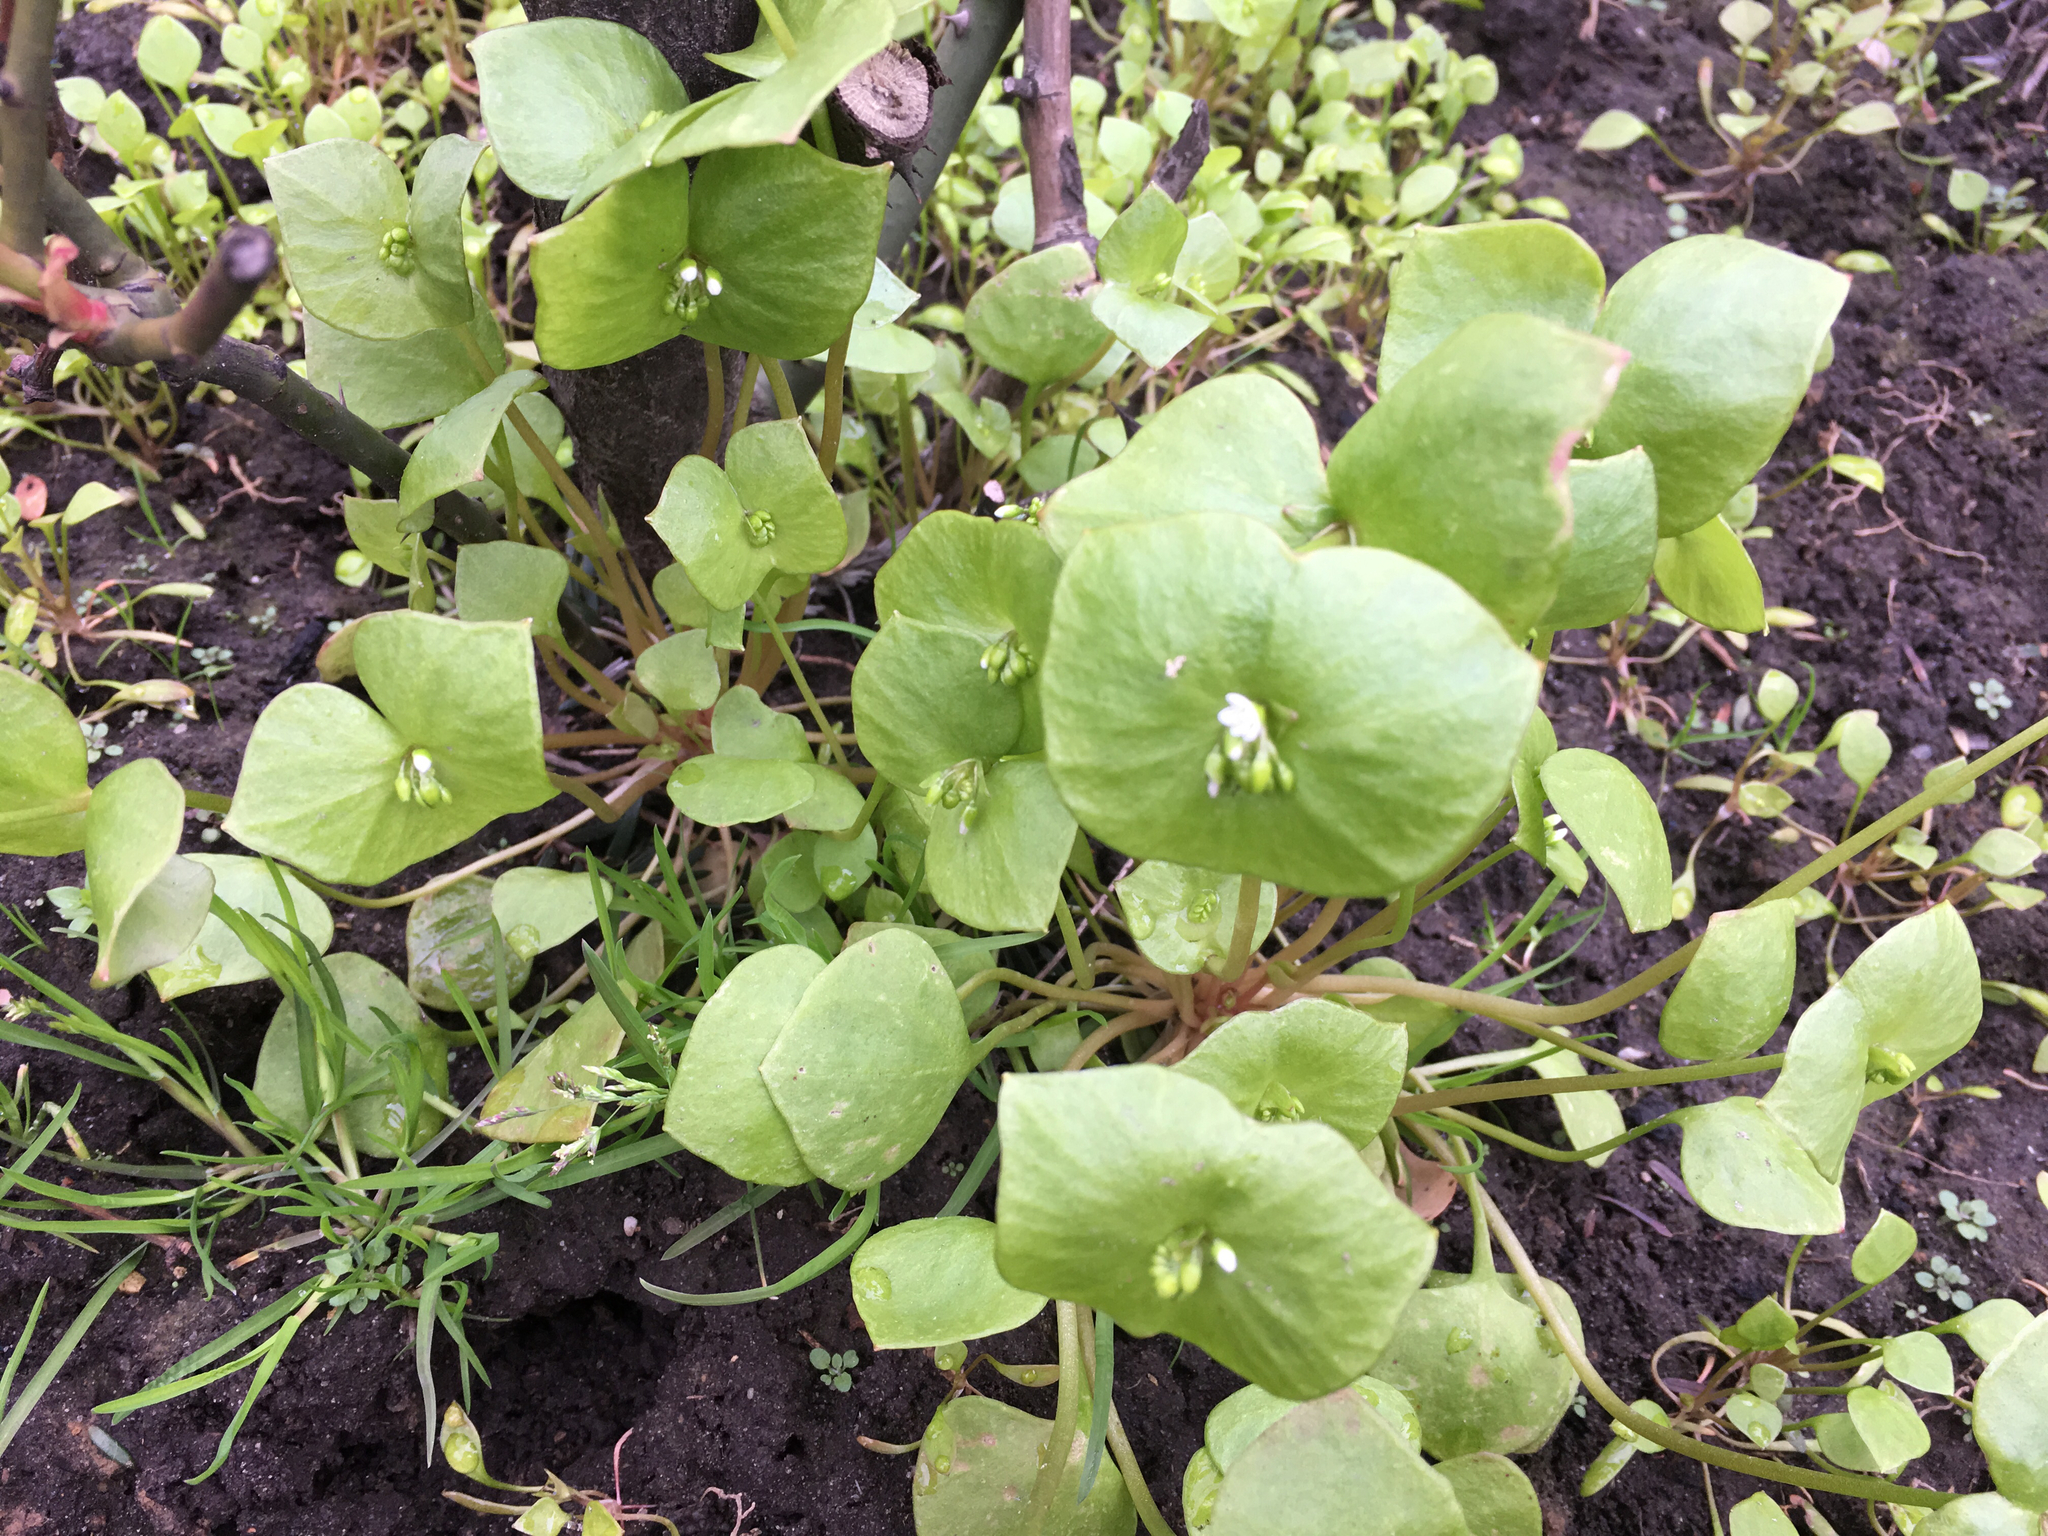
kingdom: Plantae
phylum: Tracheophyta
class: Magnoliopsida
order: Caryophyllales
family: Montiaceae
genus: Claytonia
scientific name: Claytonia perfoliata
